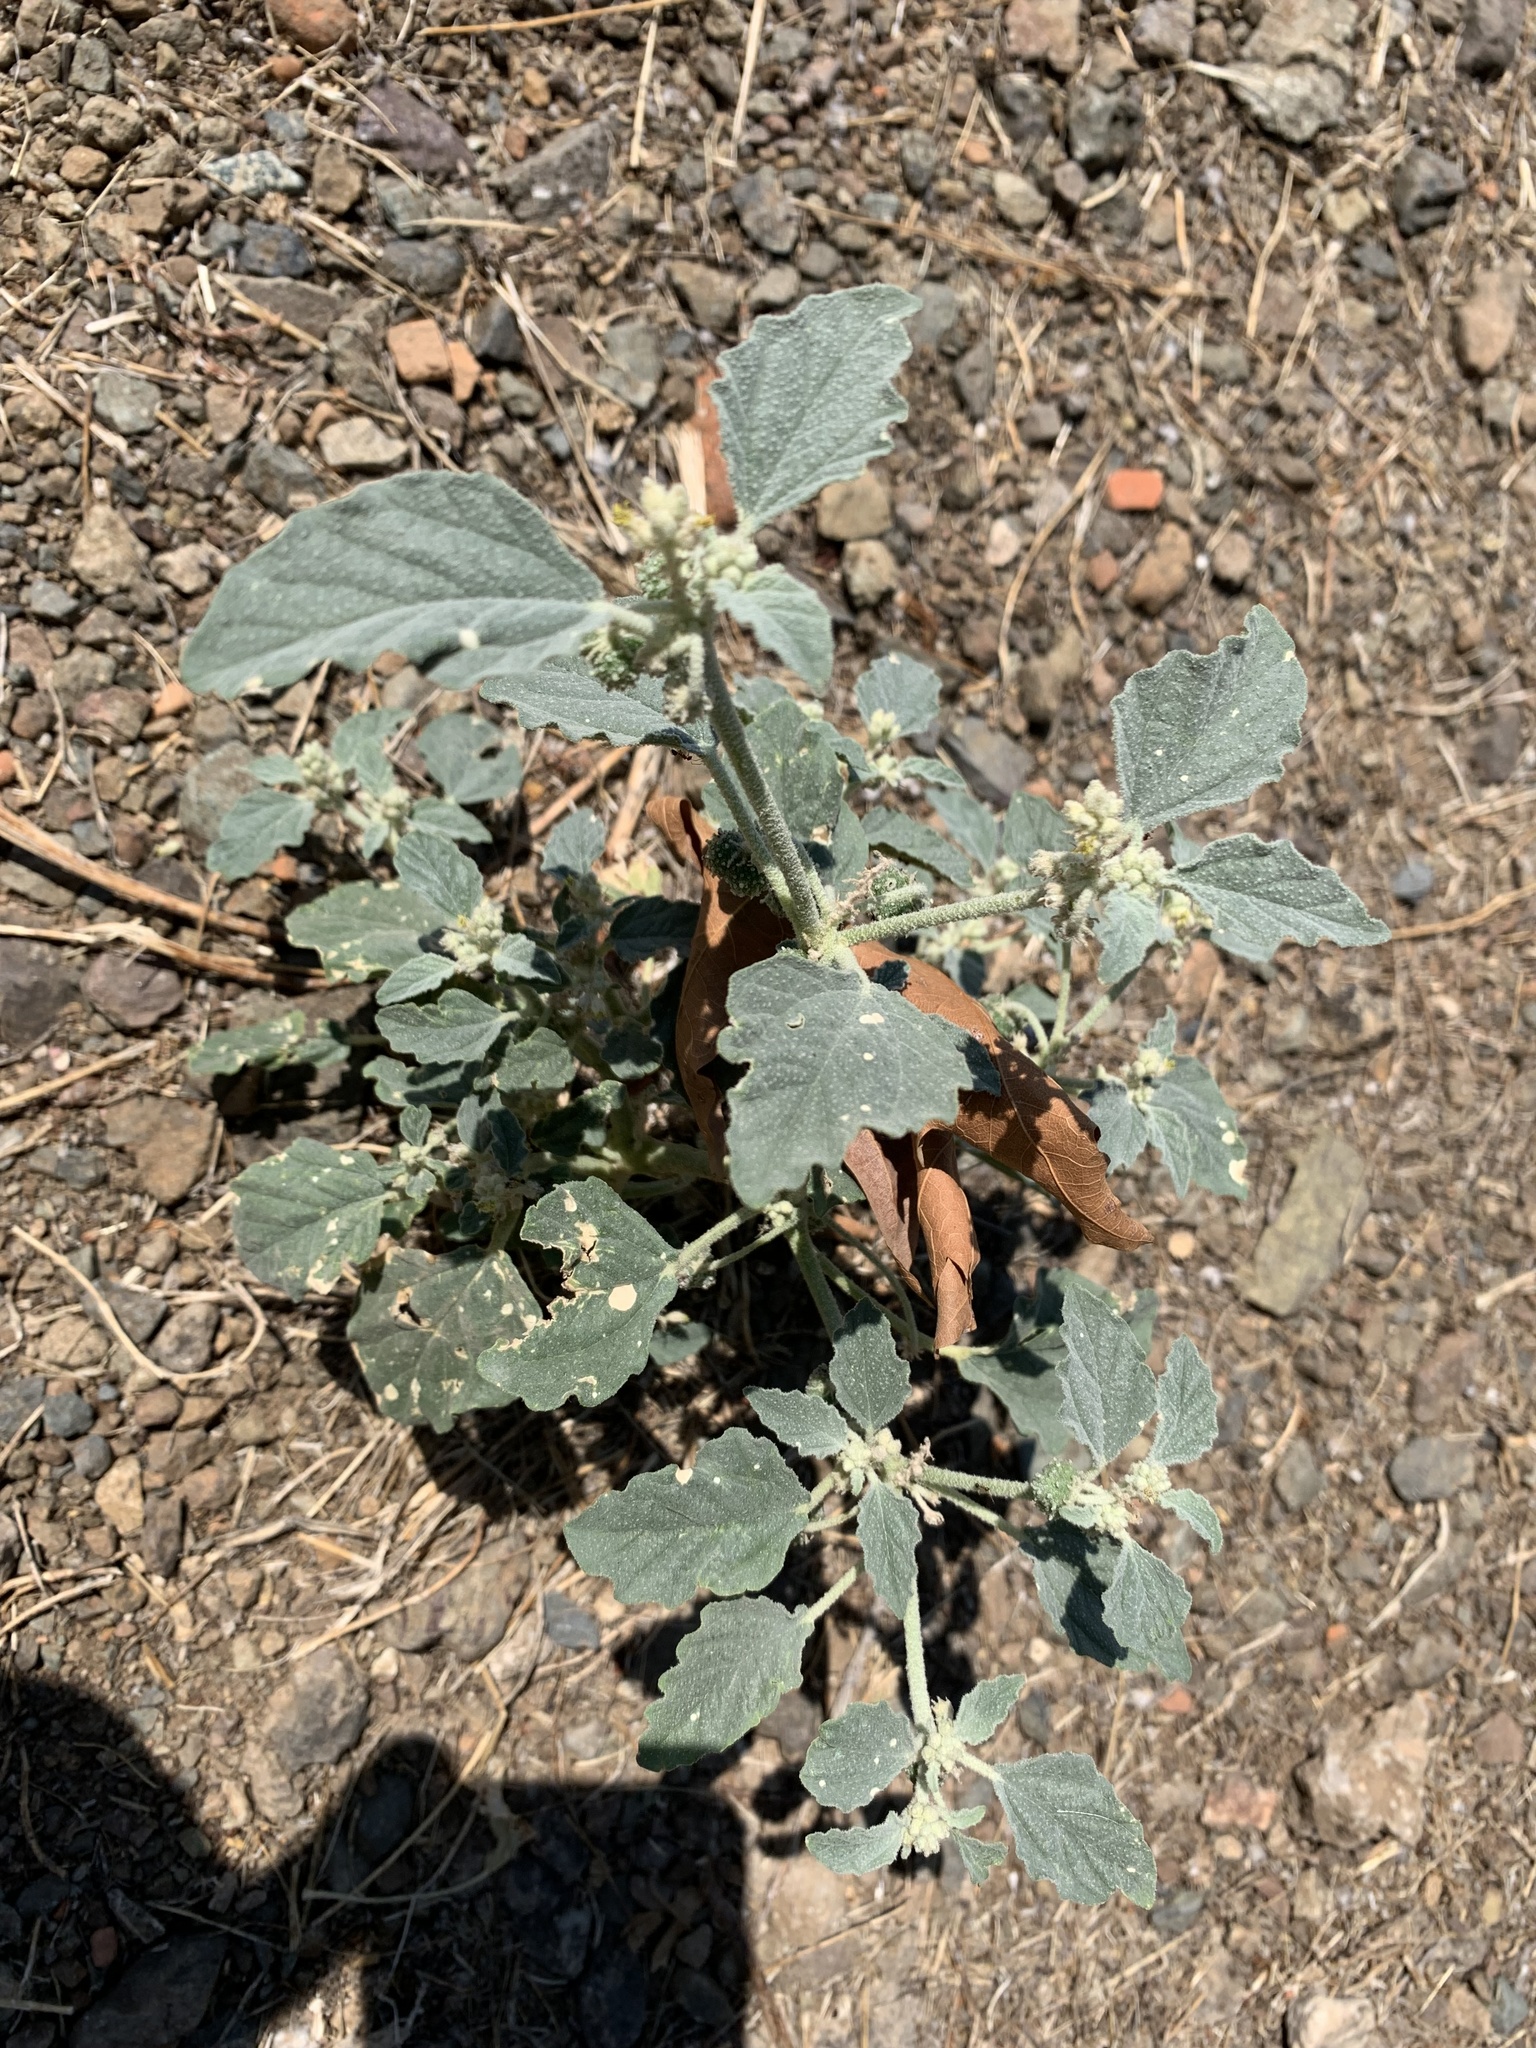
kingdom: Plantae
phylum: Tracheophyta
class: Magnoliopsida
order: Malpighiales
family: Euphorbiaceae
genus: Chrozophora
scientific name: Chrozophora tinctoria
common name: Dyer's litmus
